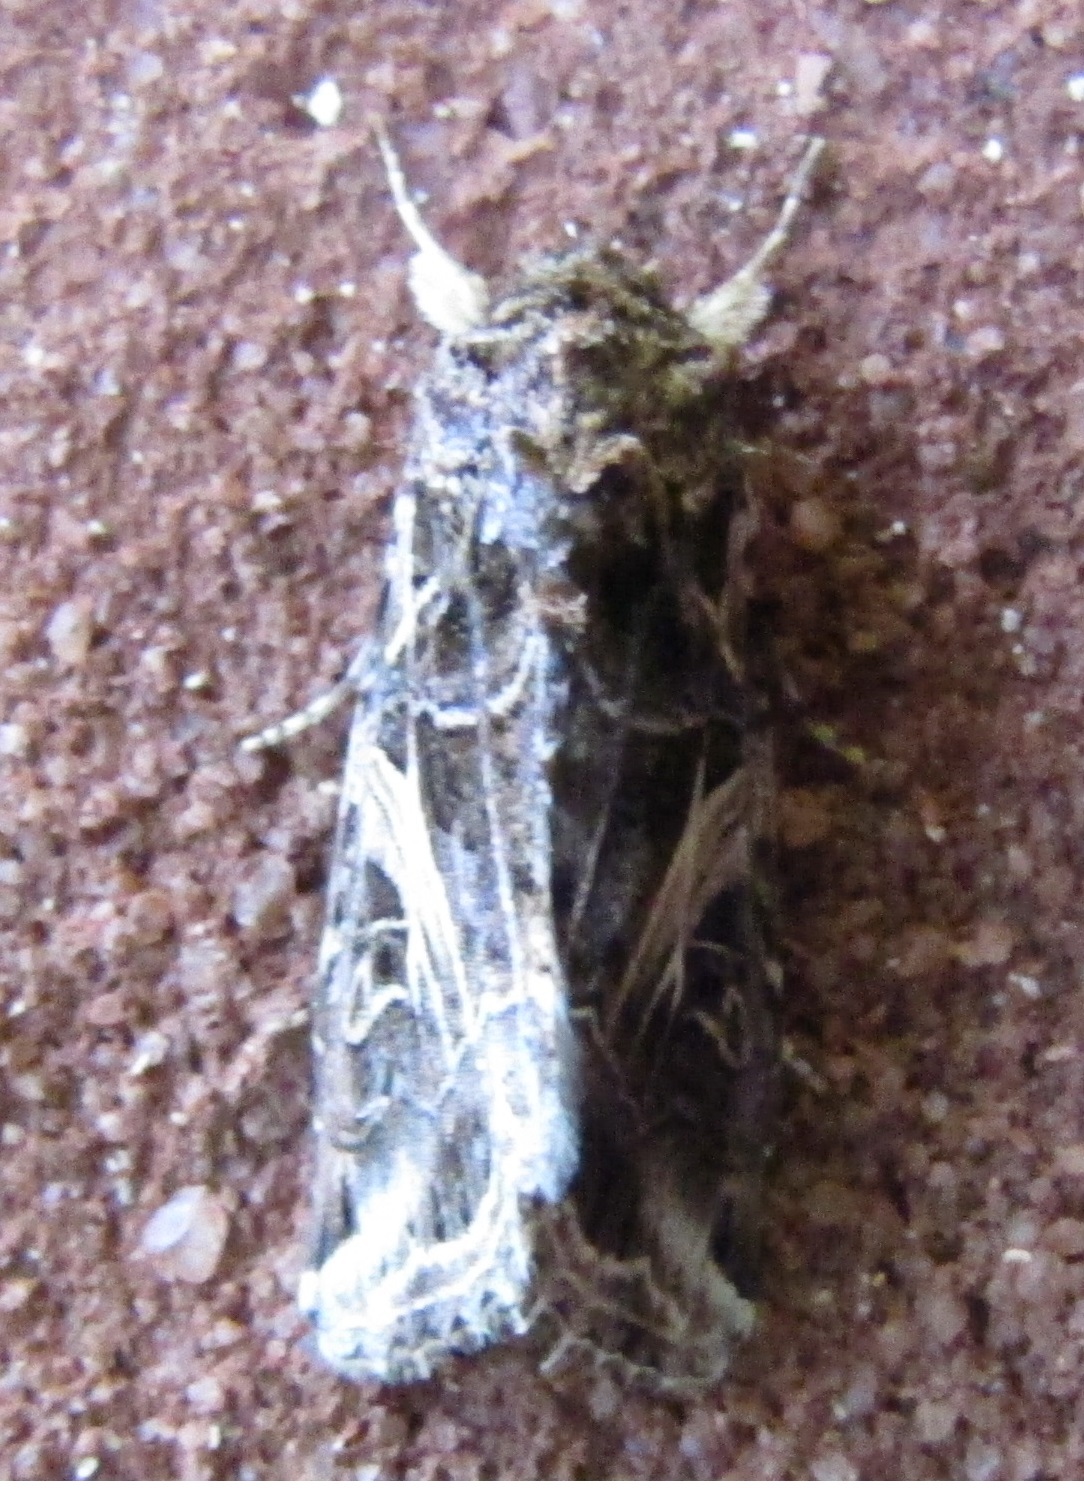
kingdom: Animalia
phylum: Arthropoda
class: Insecta
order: Lepidoptera
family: Noctuidae
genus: Spodoptera
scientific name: Spodoptera ornithogalli
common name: Yellow-striped armyworm
